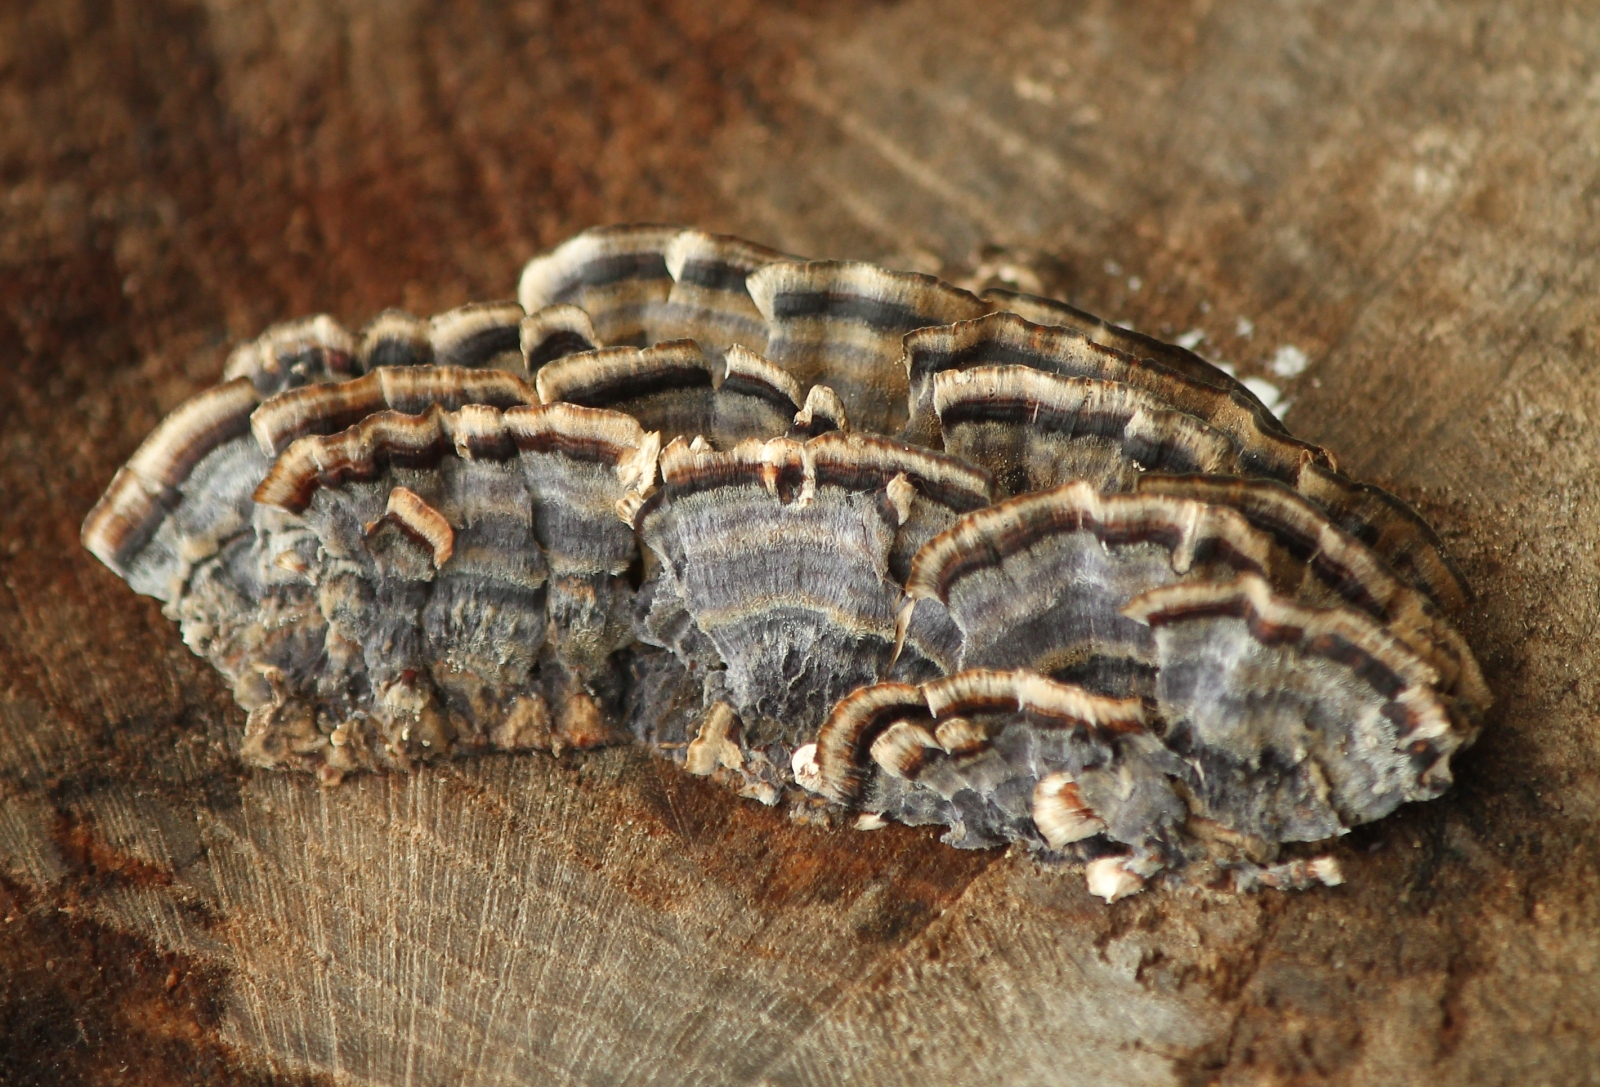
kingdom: Fungi
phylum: Basidiomycota
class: Agaricomycetes
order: Polyporales
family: Polyporaceae
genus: Trametes
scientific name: Trametes versicolor
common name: Turkeytail
